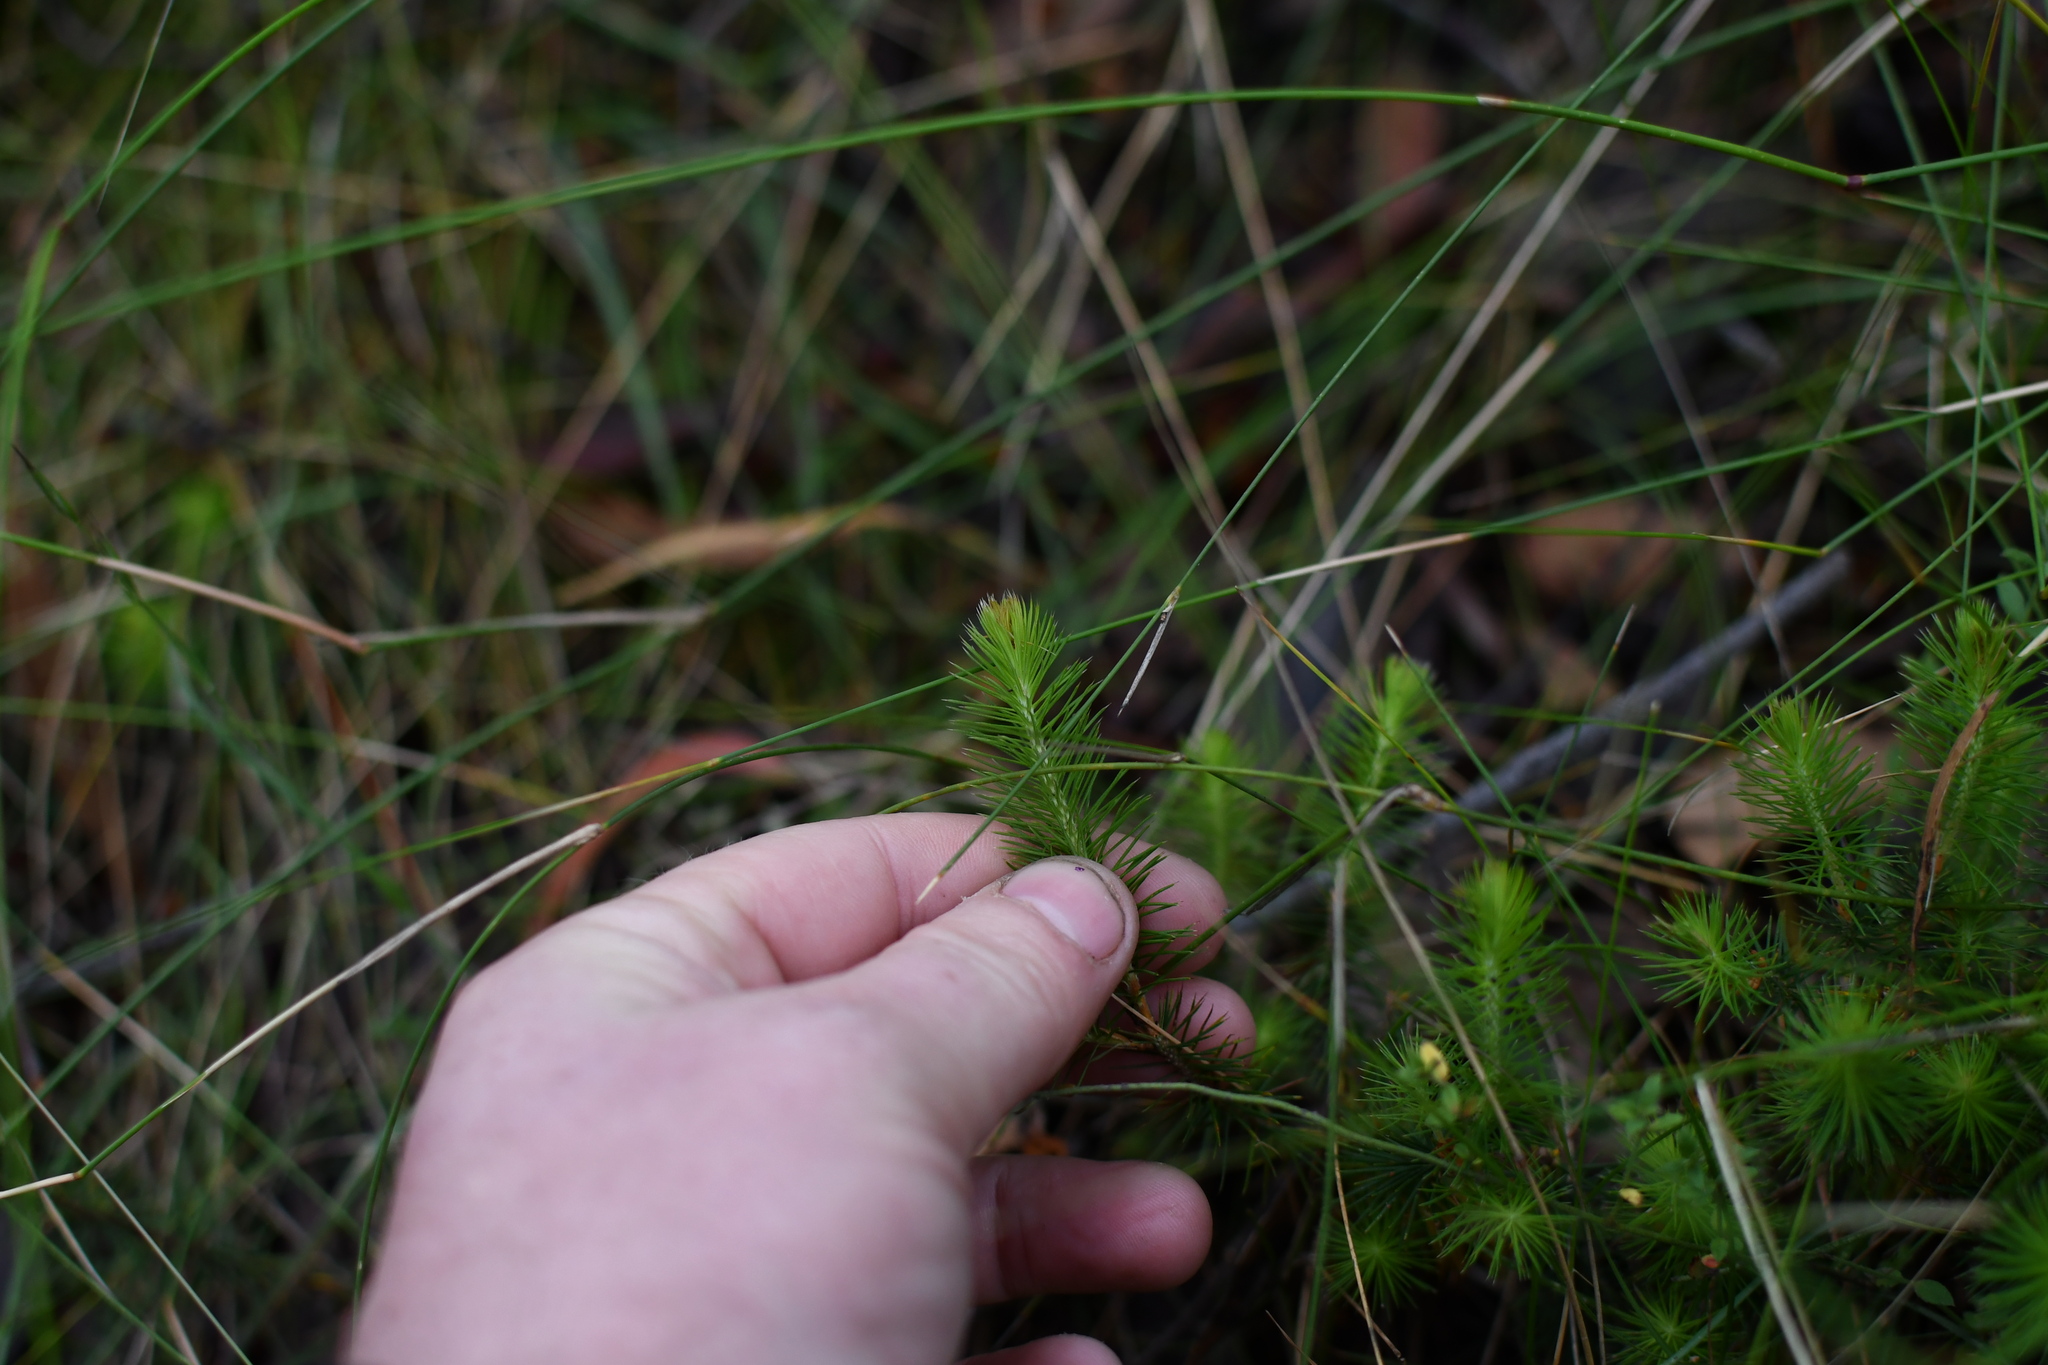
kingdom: Plantae
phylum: Tracheophyta
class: Magnoliopsida
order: Ericales
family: Ericaceae
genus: Stenanthera
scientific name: Stenanthera pinifolia
